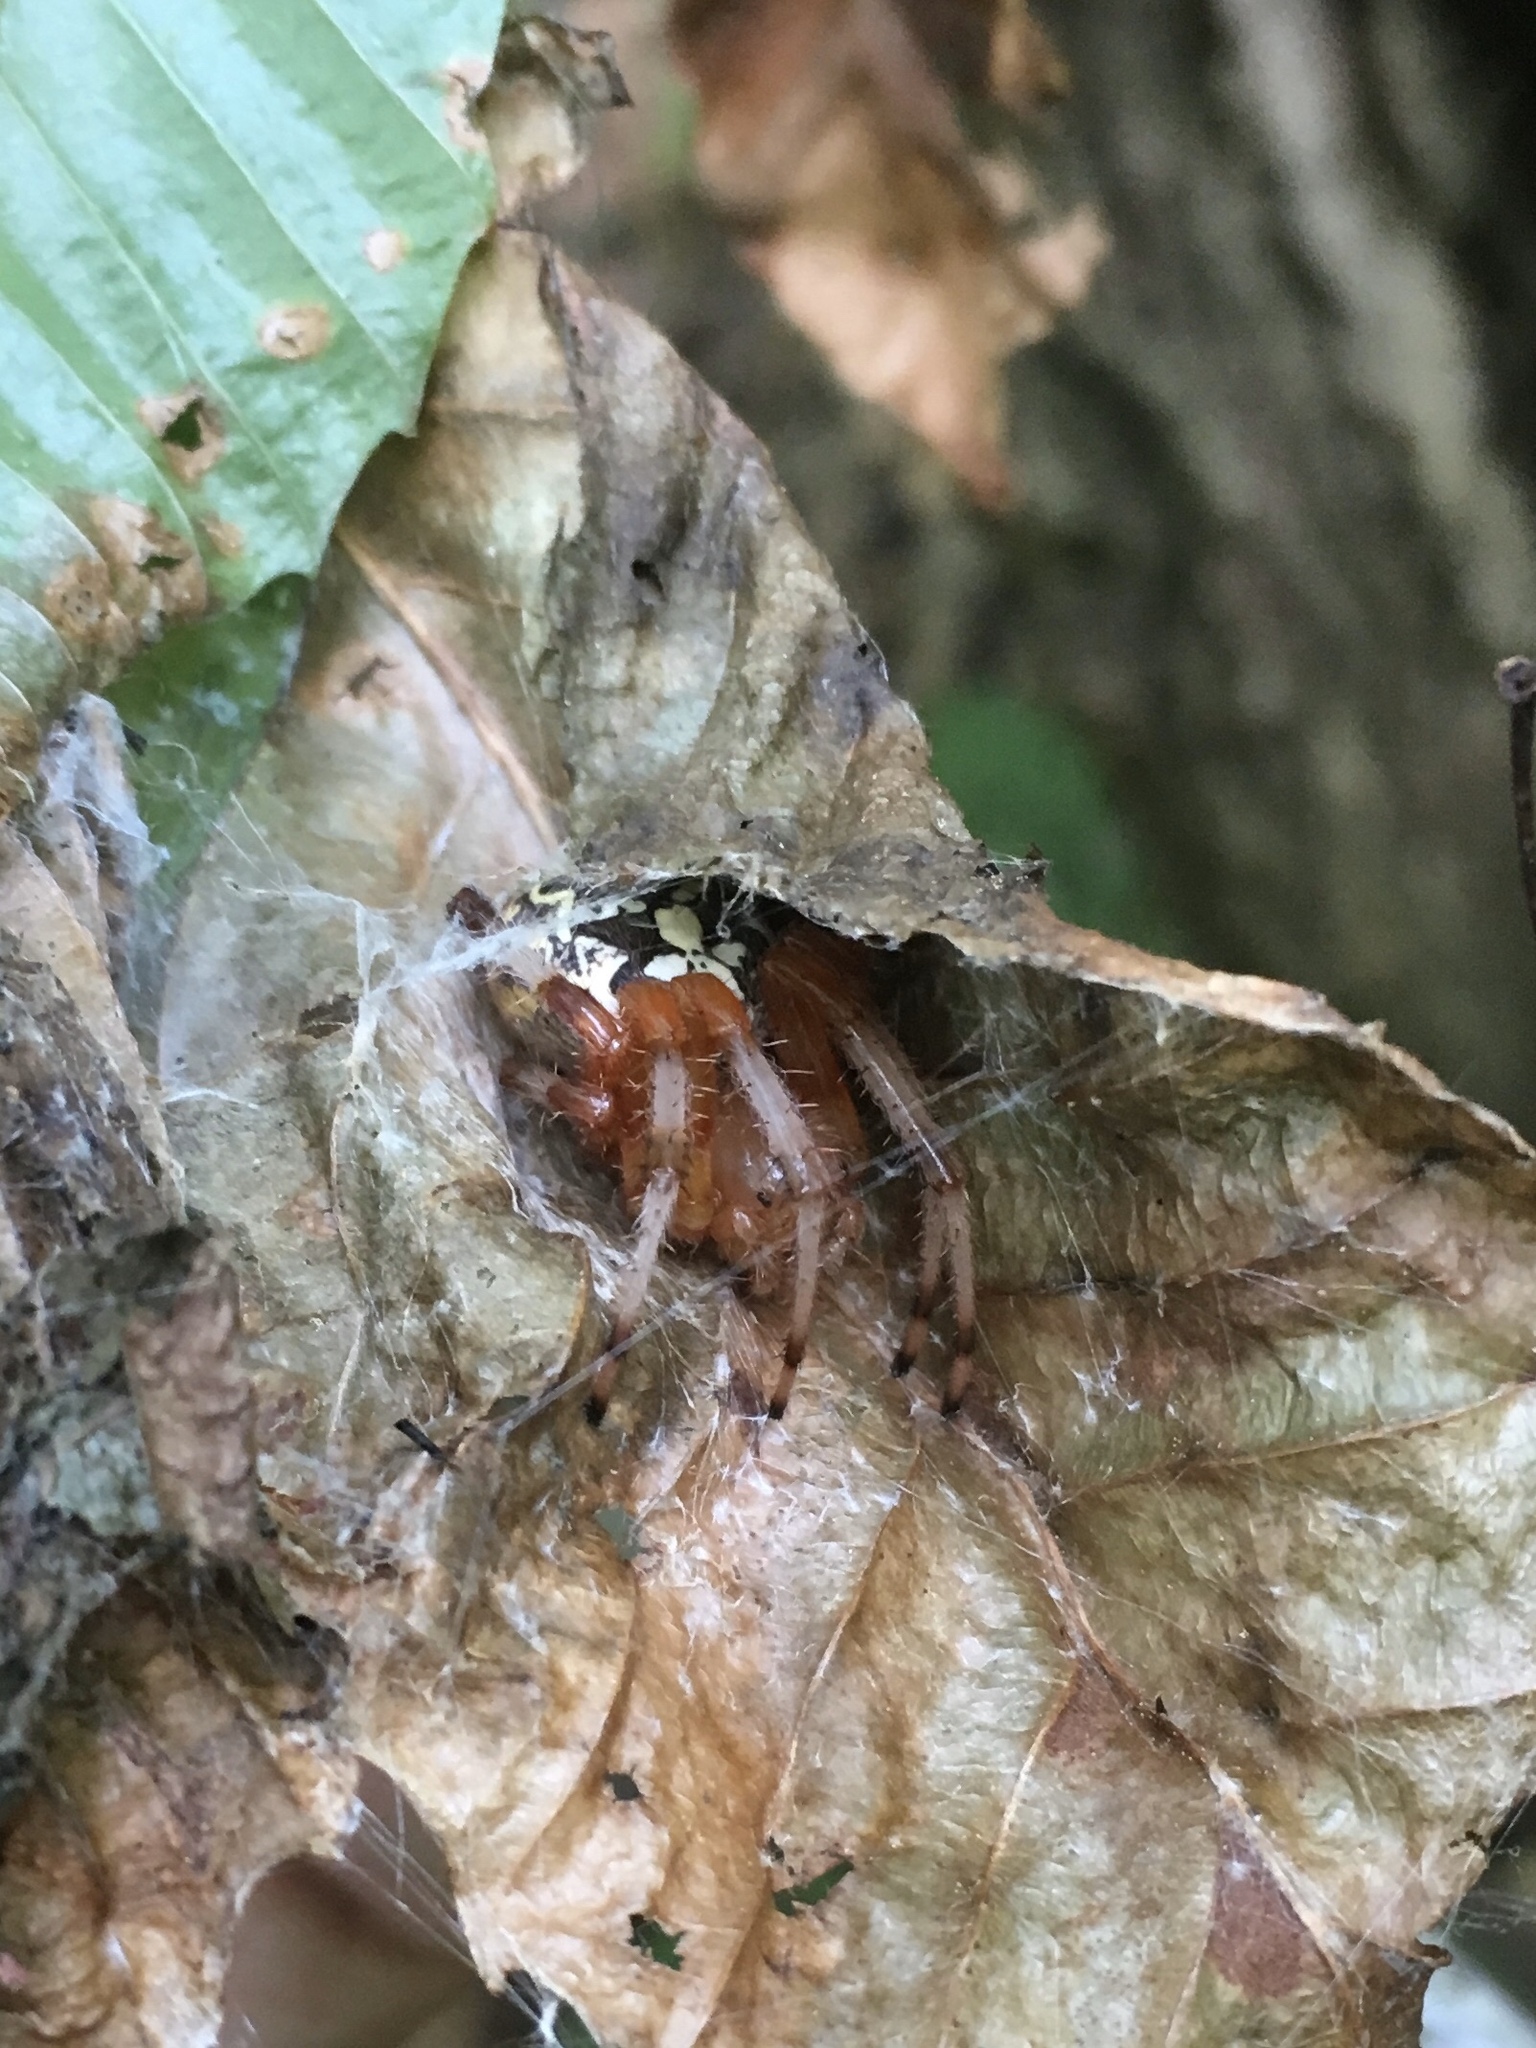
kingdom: Animalia
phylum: Arthropoda
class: Arachnida
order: Araneae
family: Araneidae
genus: Araneus
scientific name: Araneus marmoreus
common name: Marbled orbweaver
